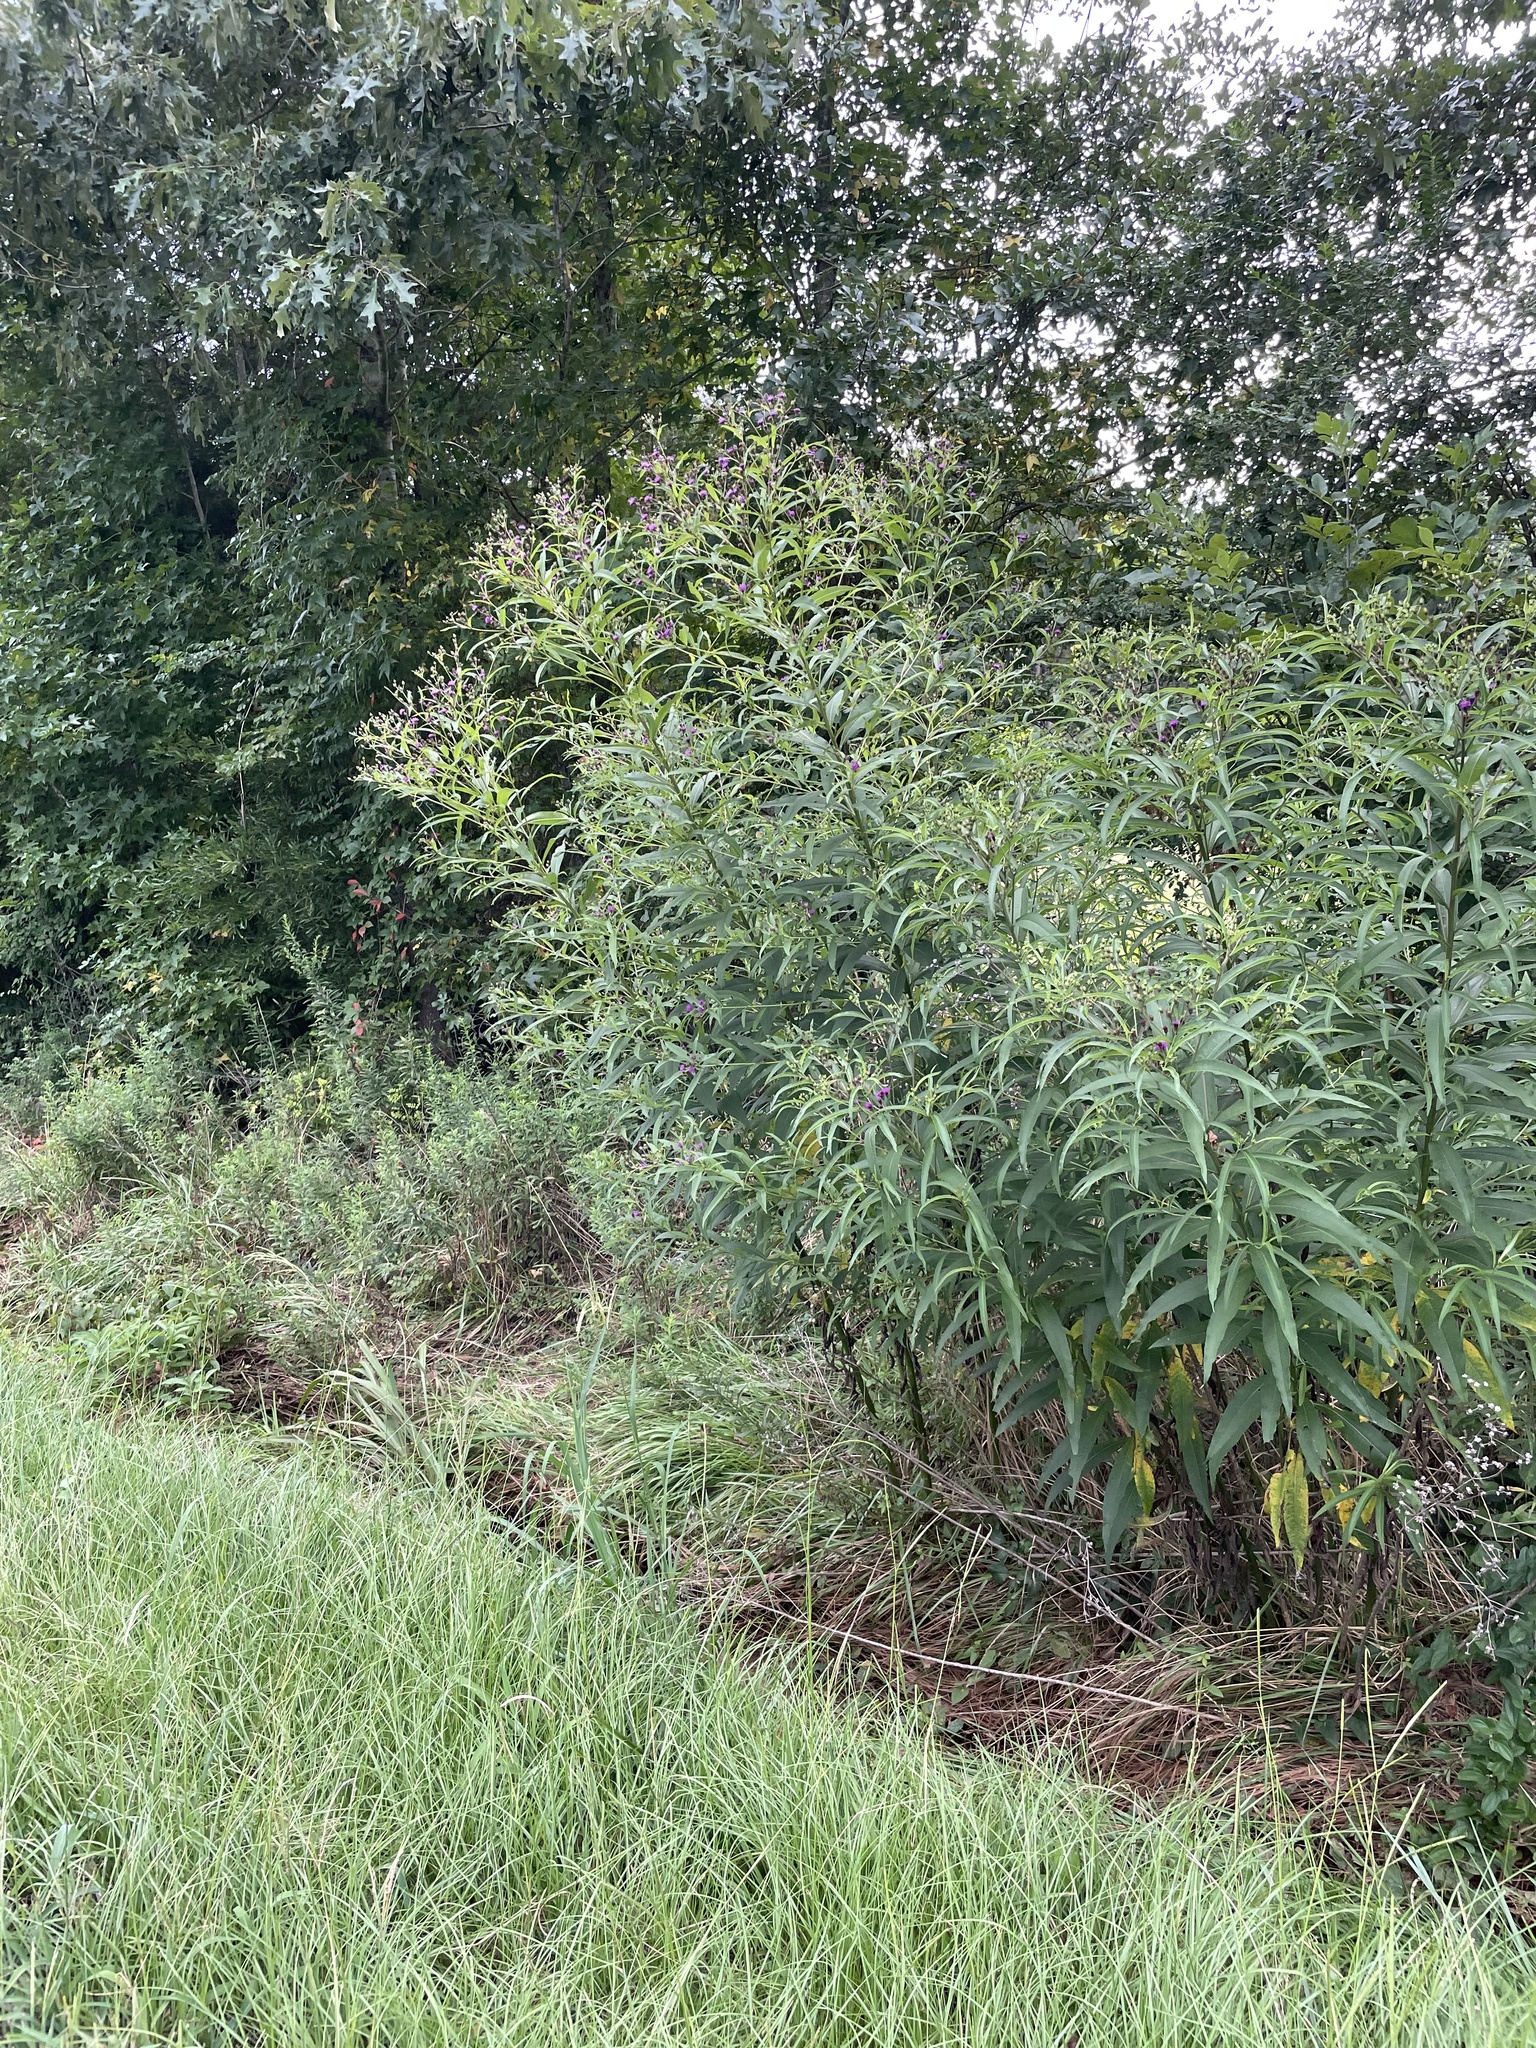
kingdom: Plantae
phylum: Tracheophyta
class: Magnoliopsida
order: Asterales
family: Asteraceae
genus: Vernonia
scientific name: Vernonia noveboracensis
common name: New york ironweed
